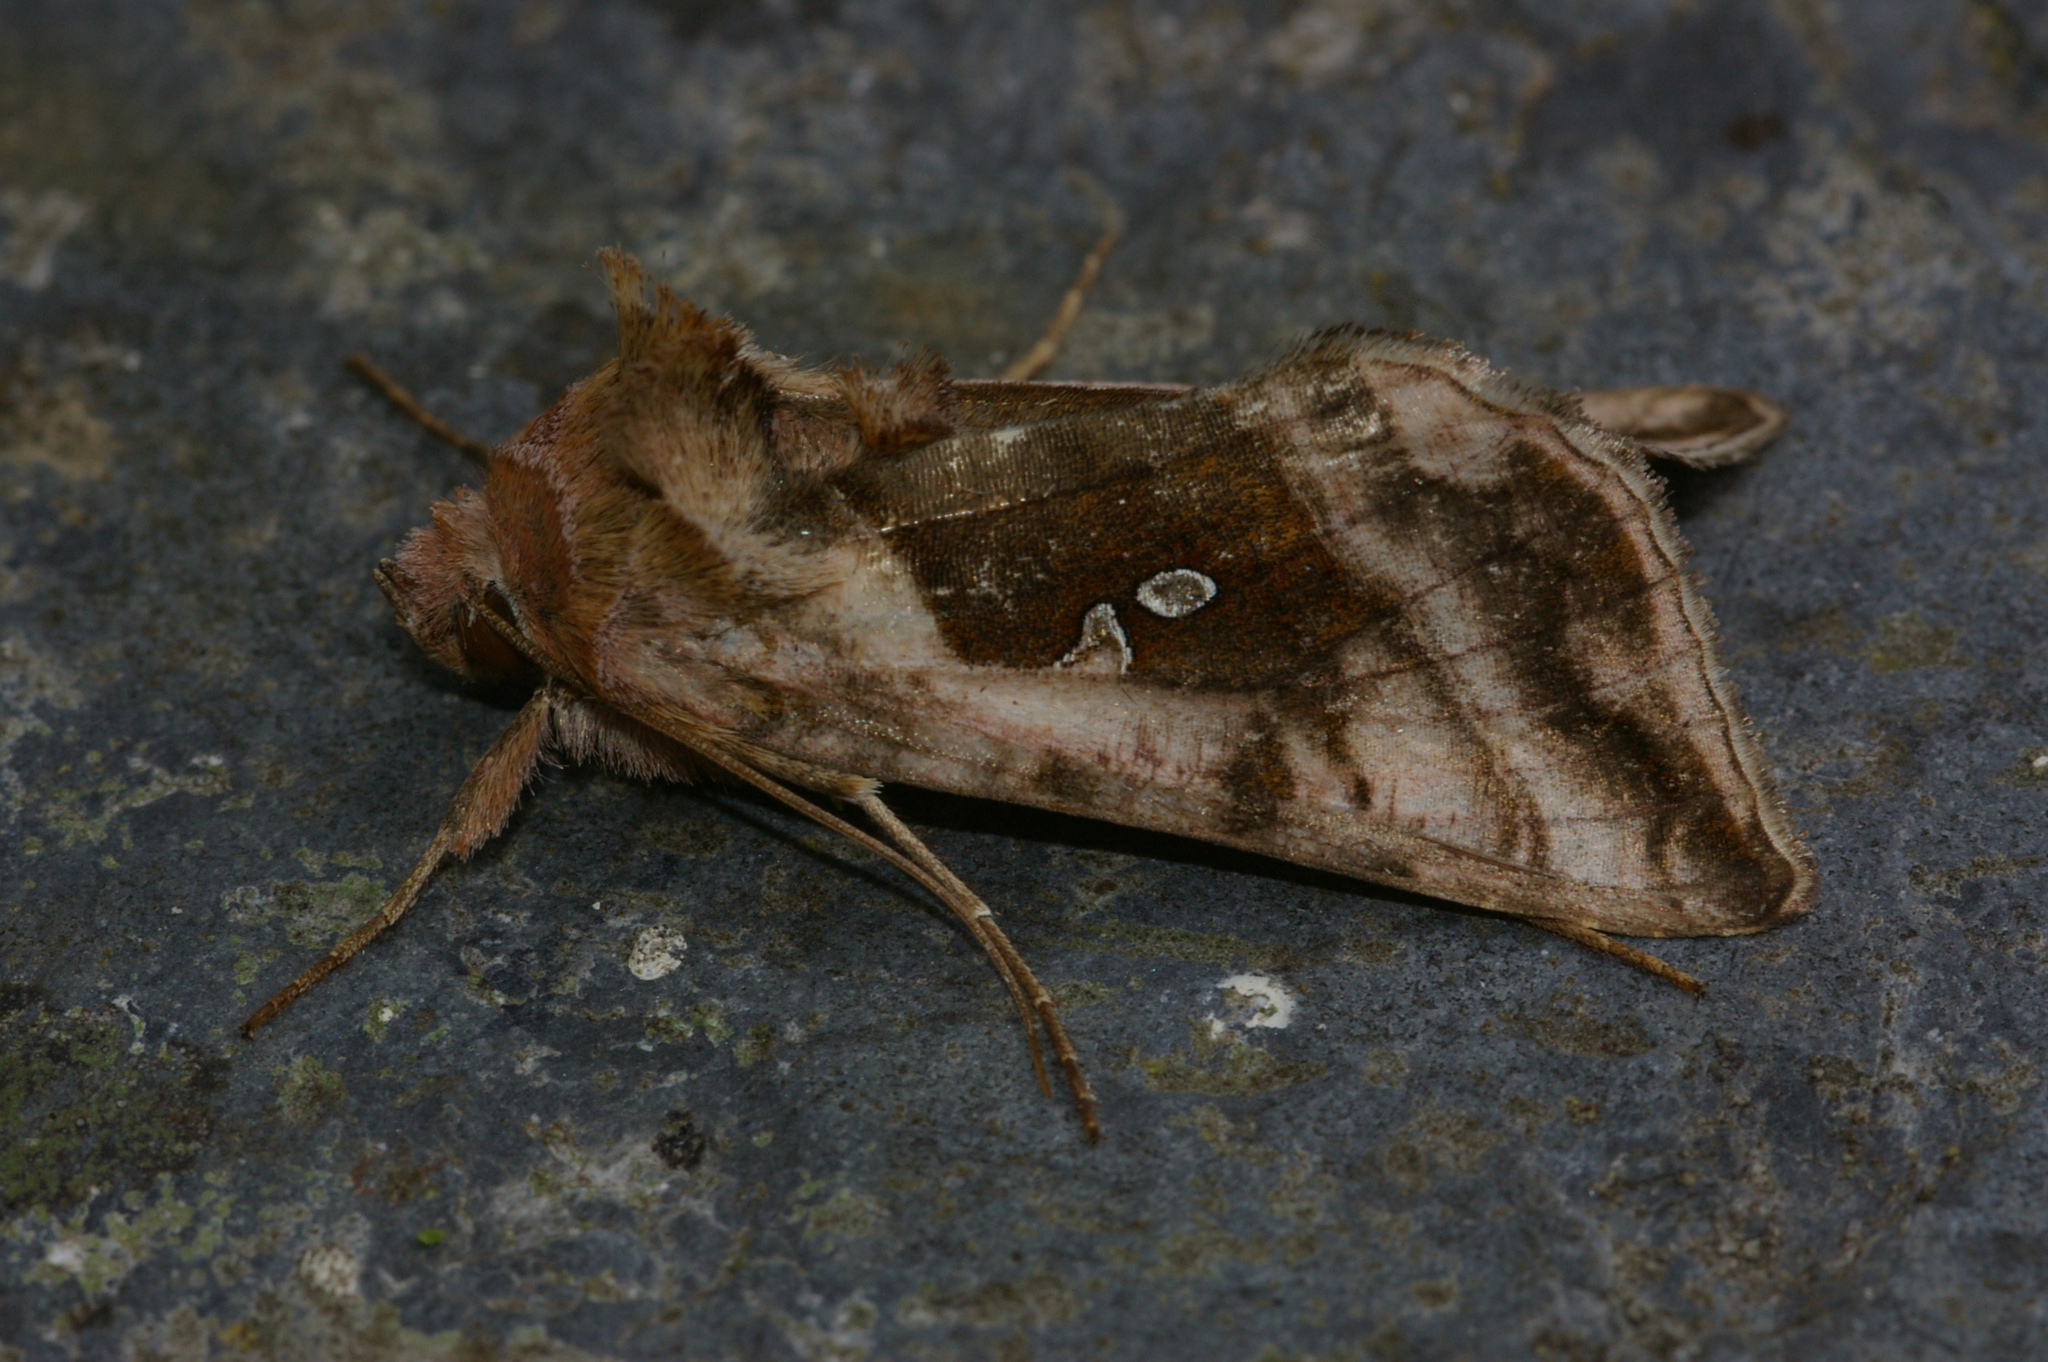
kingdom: Animalia
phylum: Arthropoda
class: Insecta
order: Lepidoptera
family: Noctuidae
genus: Autographa
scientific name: Autographa jota
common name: Plain golden y
